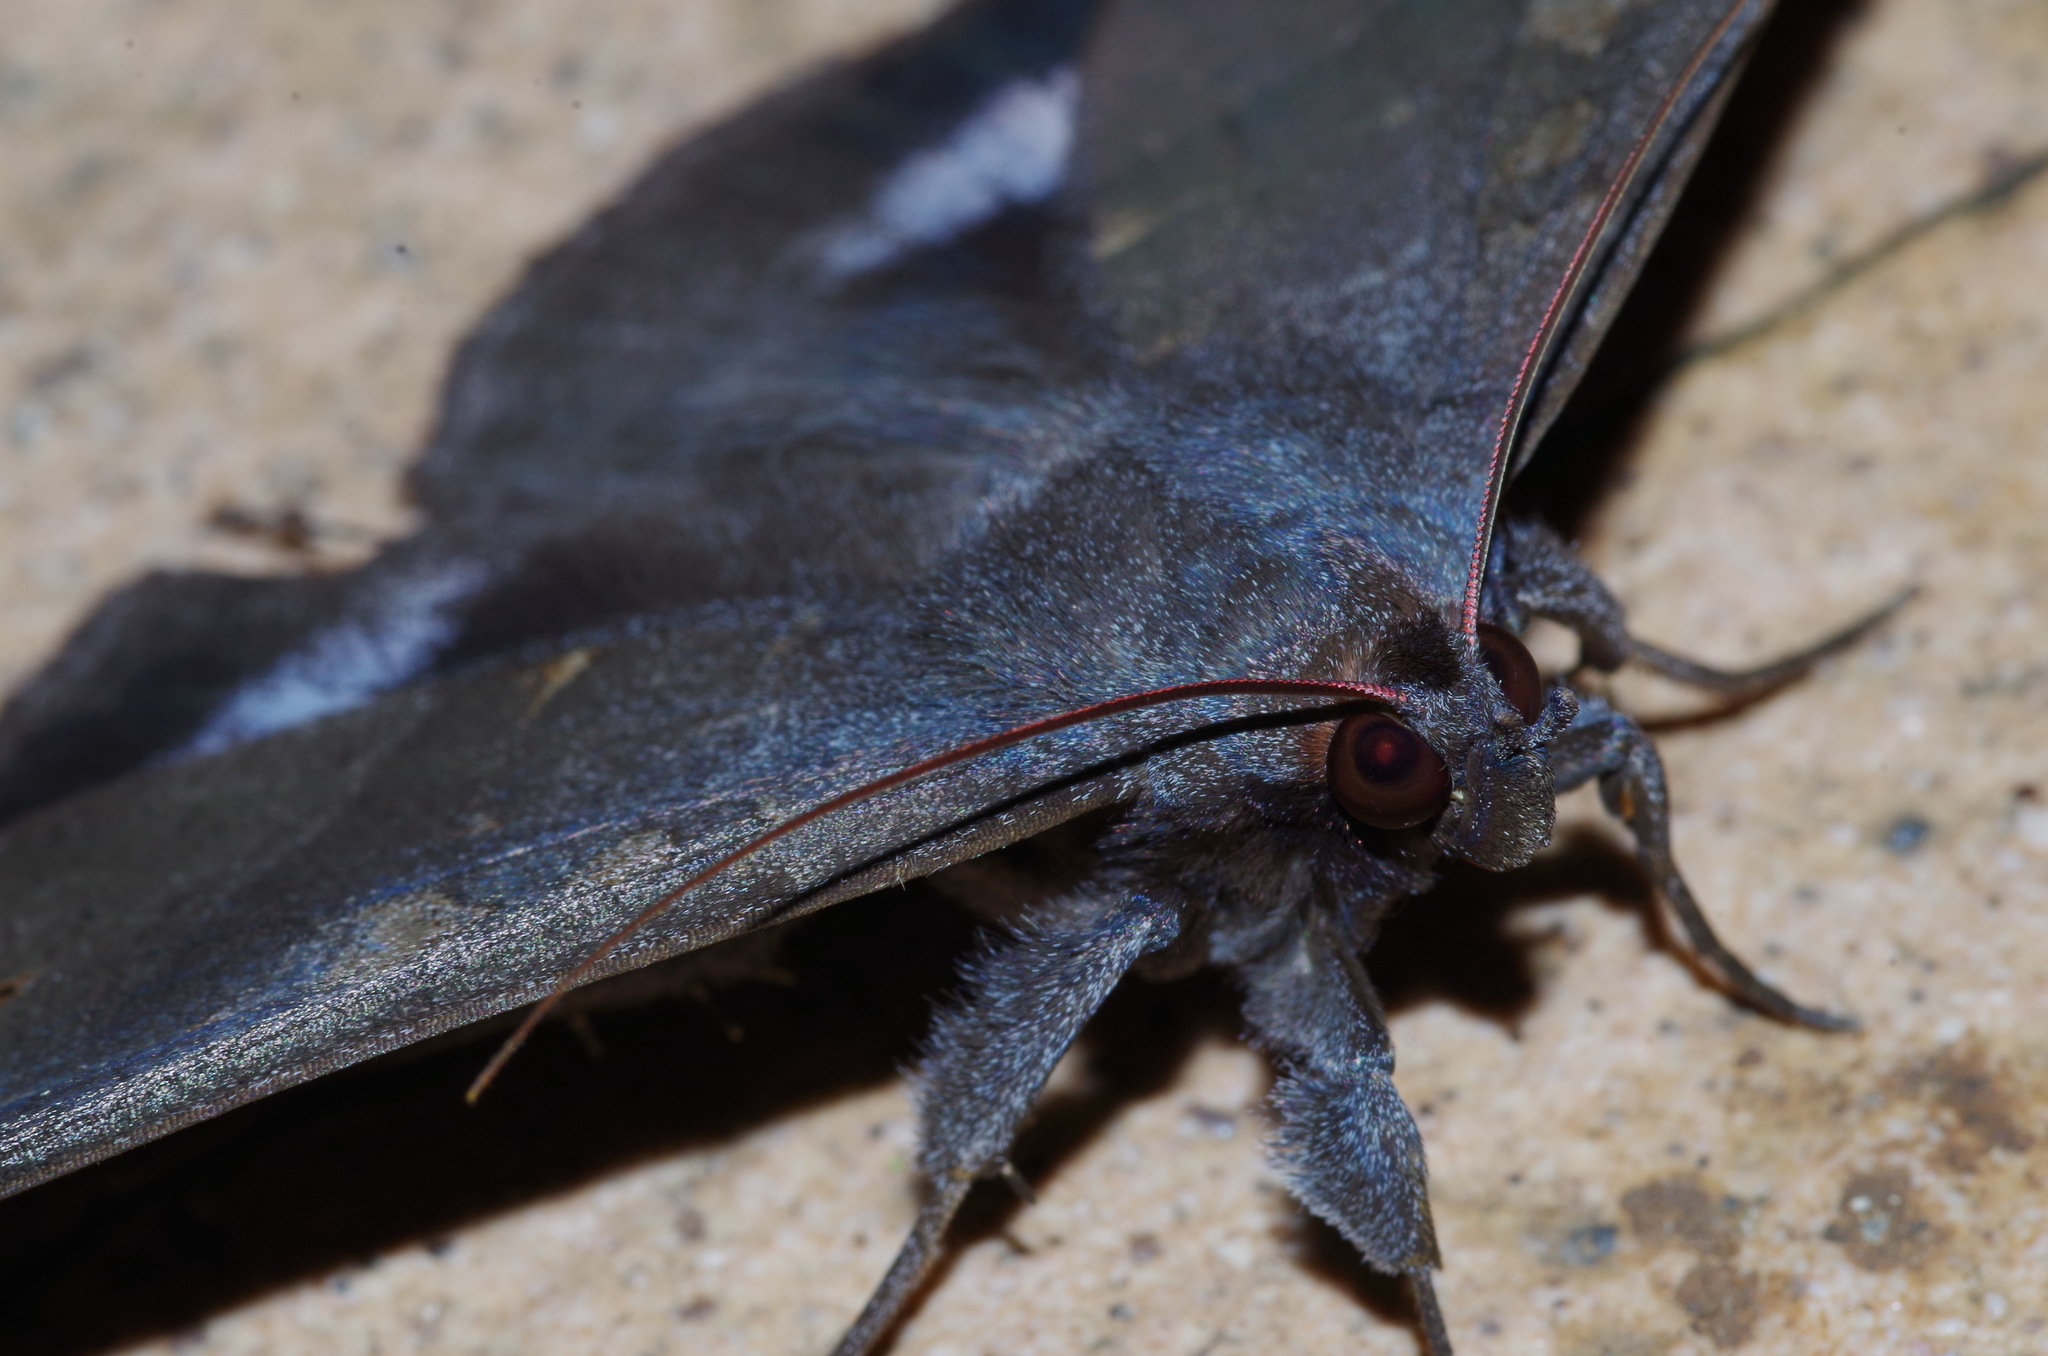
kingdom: Animalia
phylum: Arthropoda
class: Insecta
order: Lepidoptera
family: Erebidae
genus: Ischyja
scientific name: Ischyja ferrifracta
